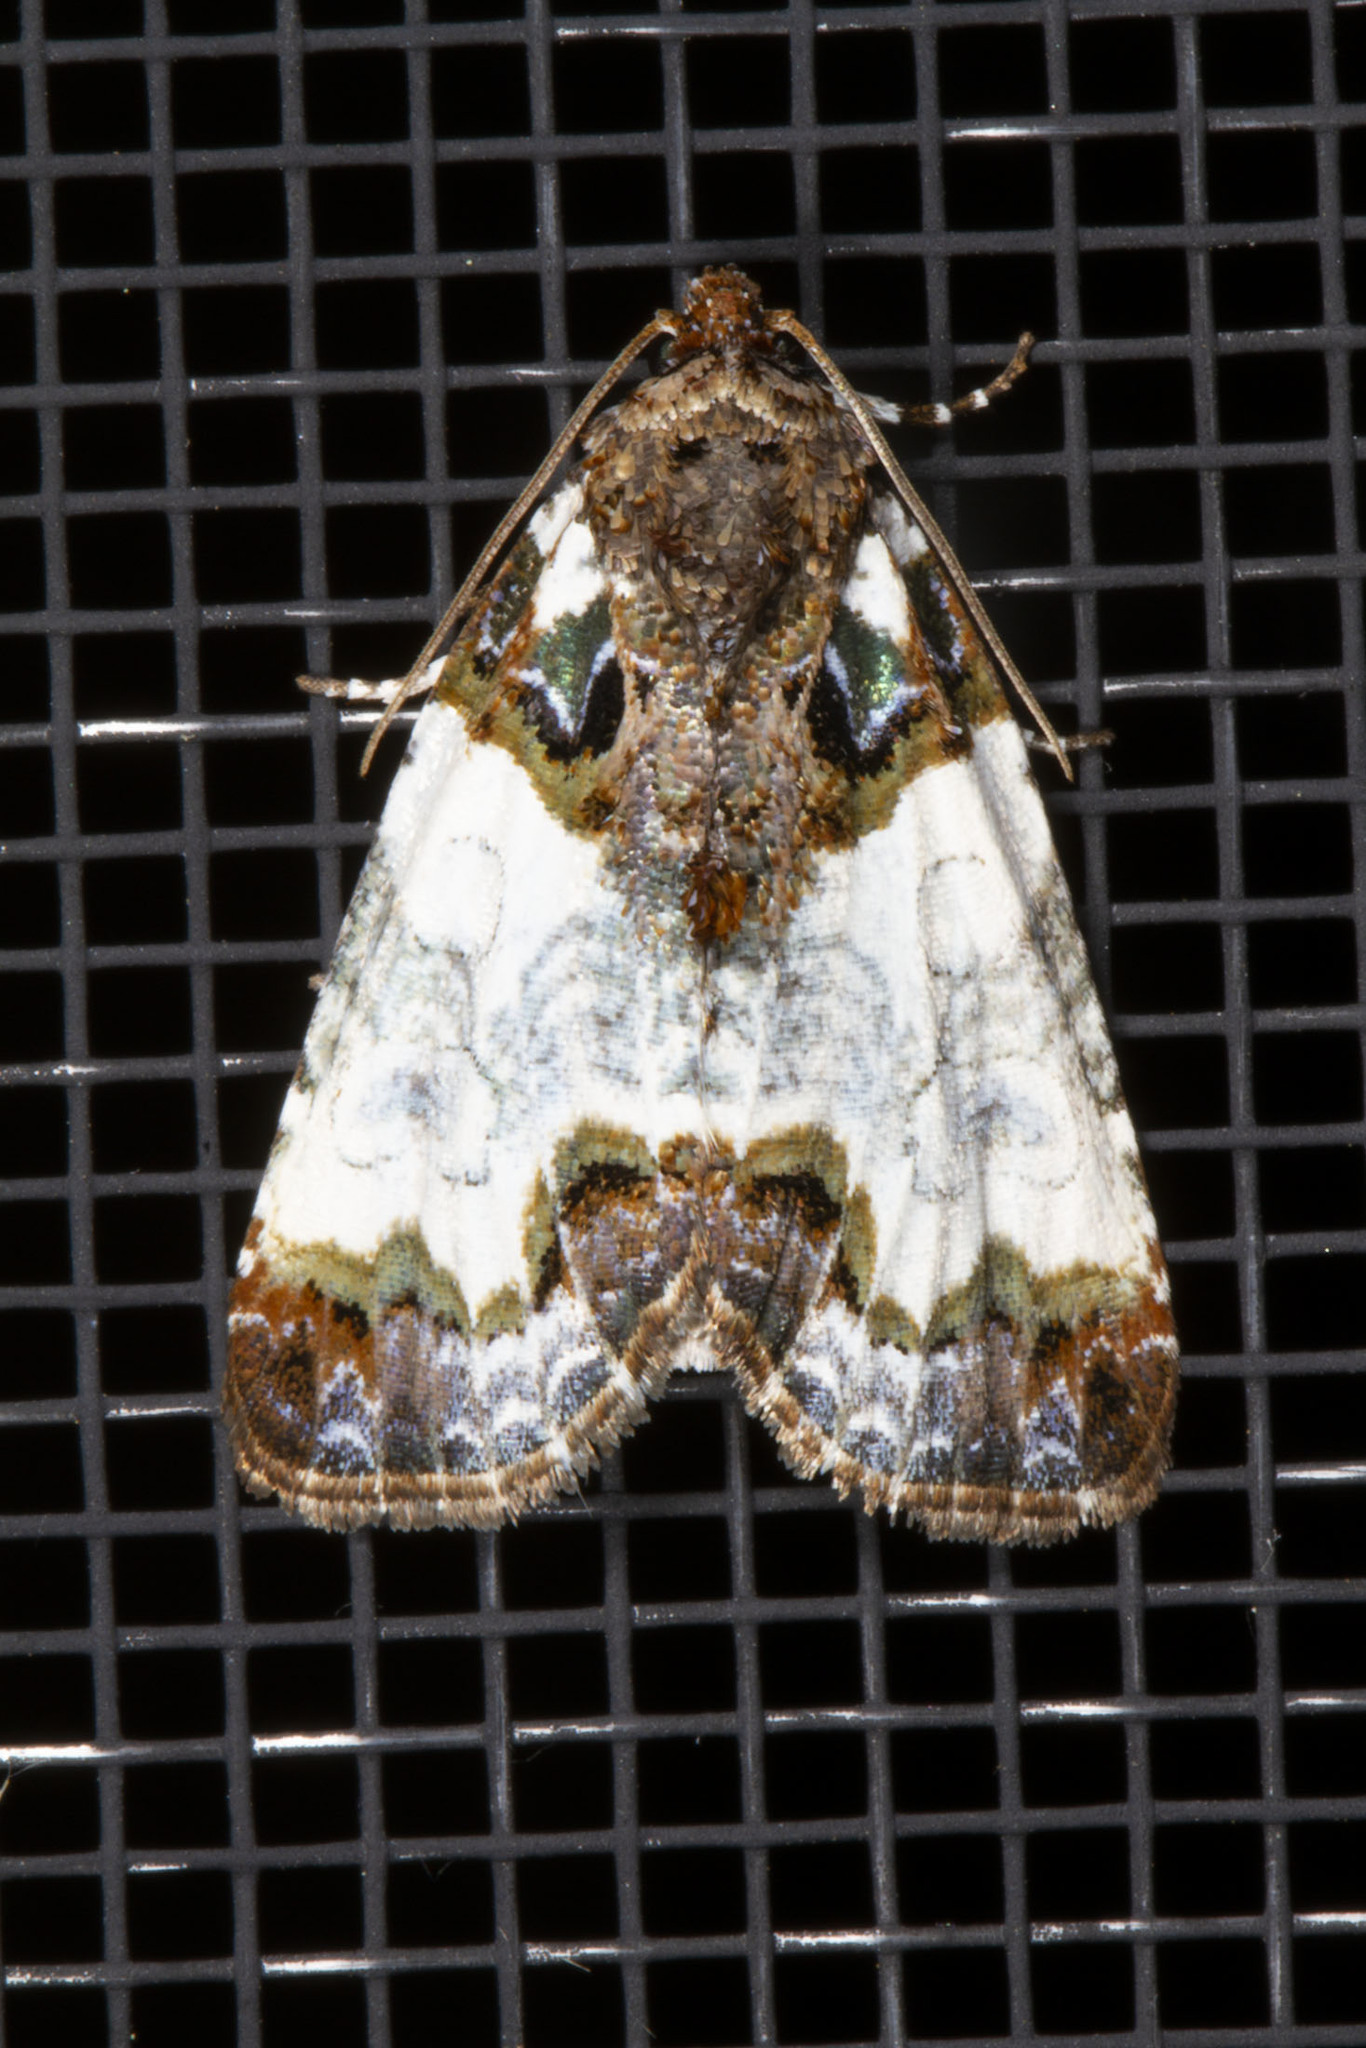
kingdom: Animalia
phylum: Arthropoda
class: Insecta
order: Lepidoptera
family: Noctuidae
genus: Cerma
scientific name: Cerma cerintha
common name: Tufted bird-dropping moth
